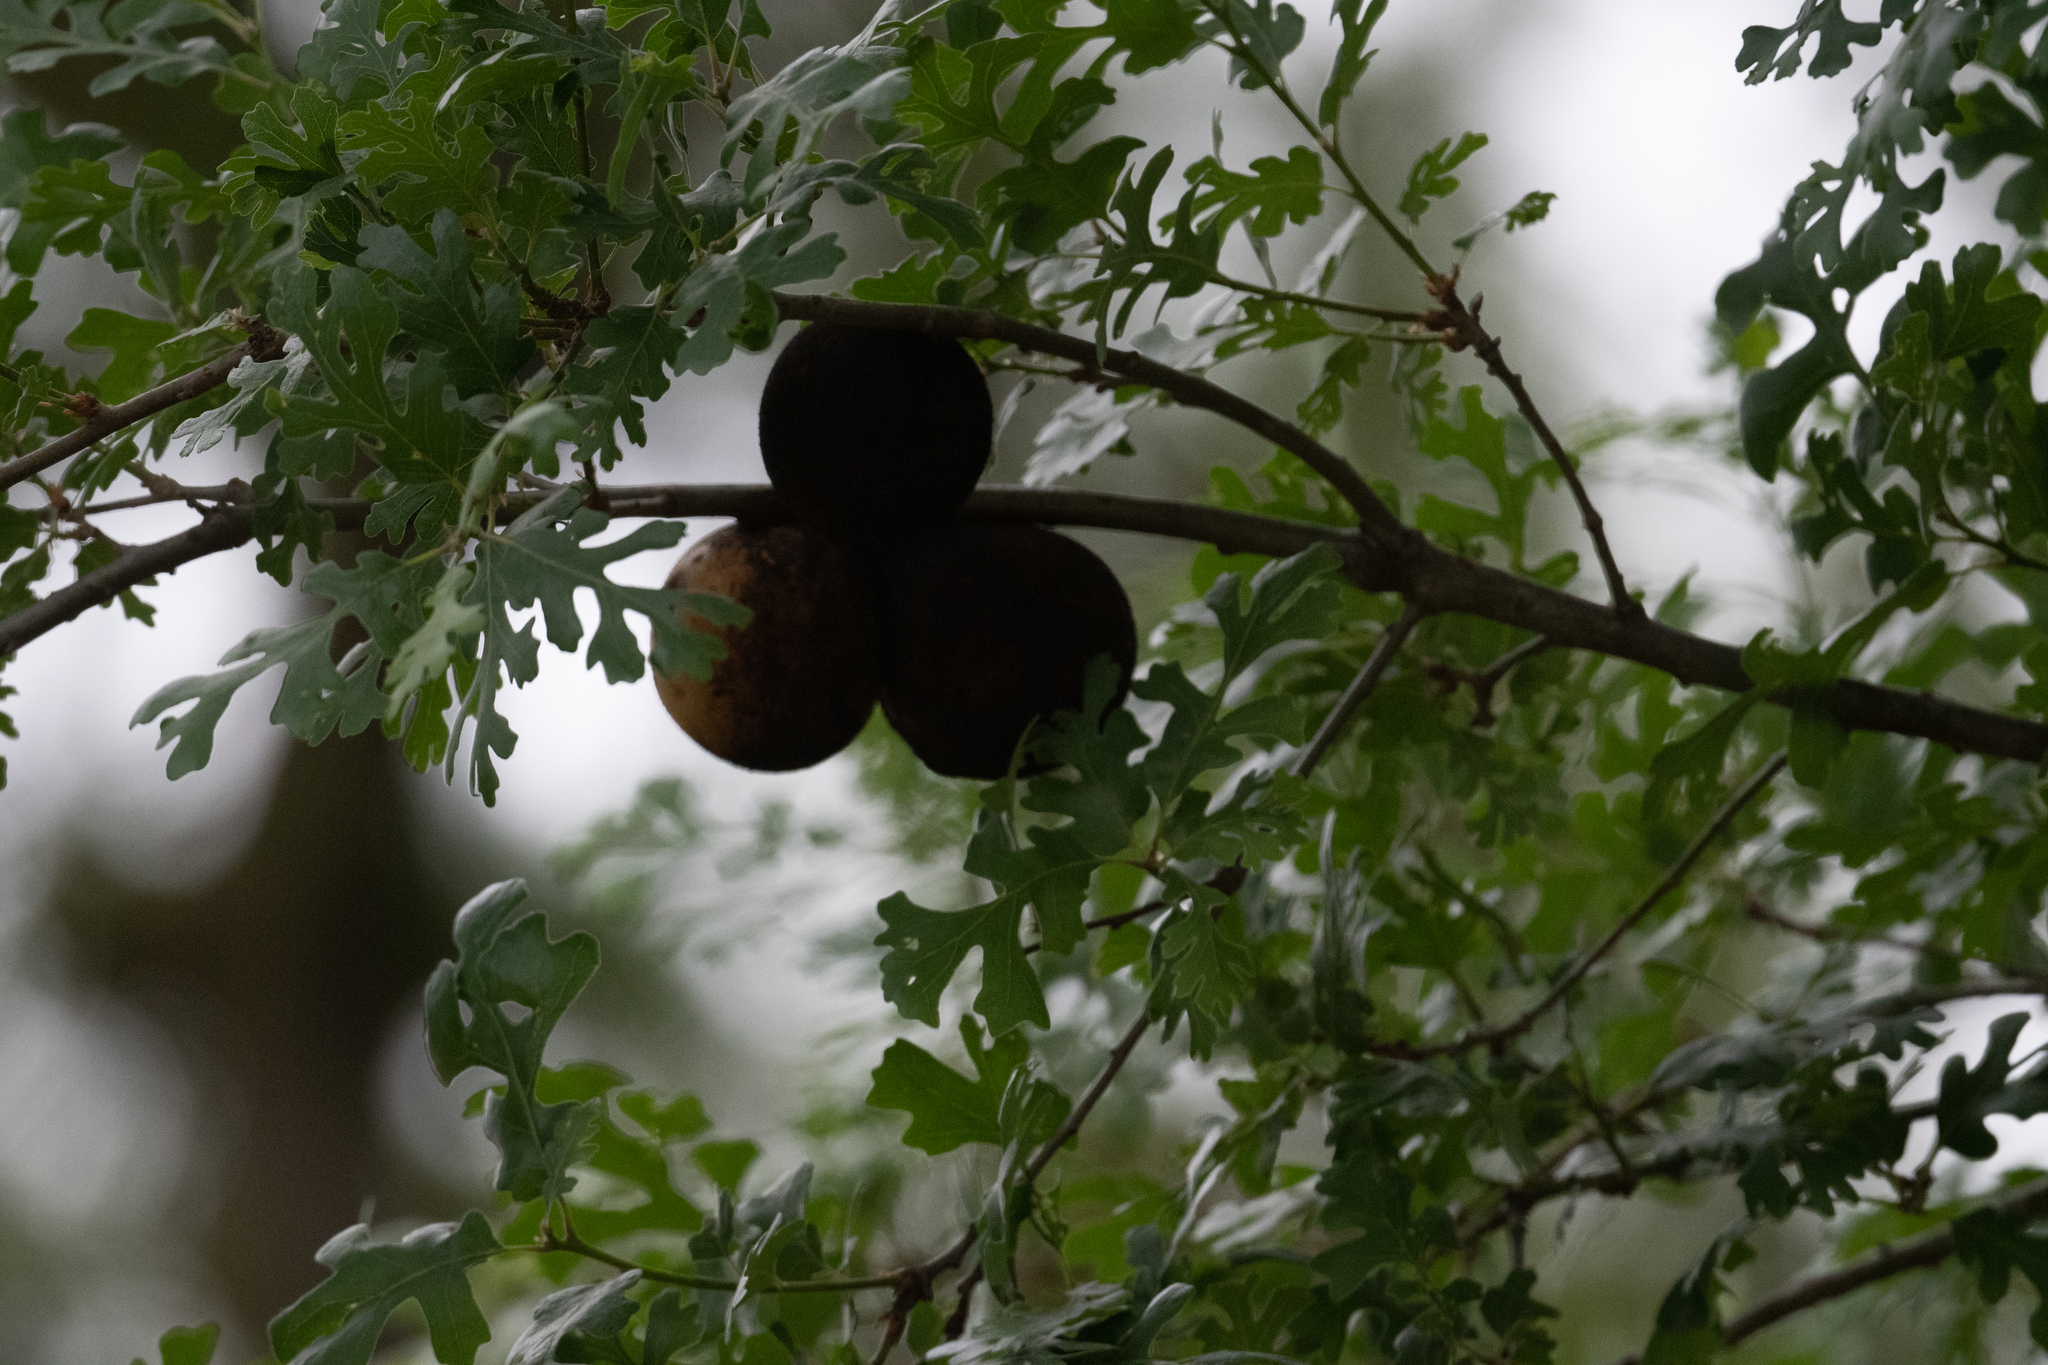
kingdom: Animalia
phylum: Arthropoda
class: Insecta
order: Hymenoptera
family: Cynipidae
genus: Andricus
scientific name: Andricus quercuscalifornicus
